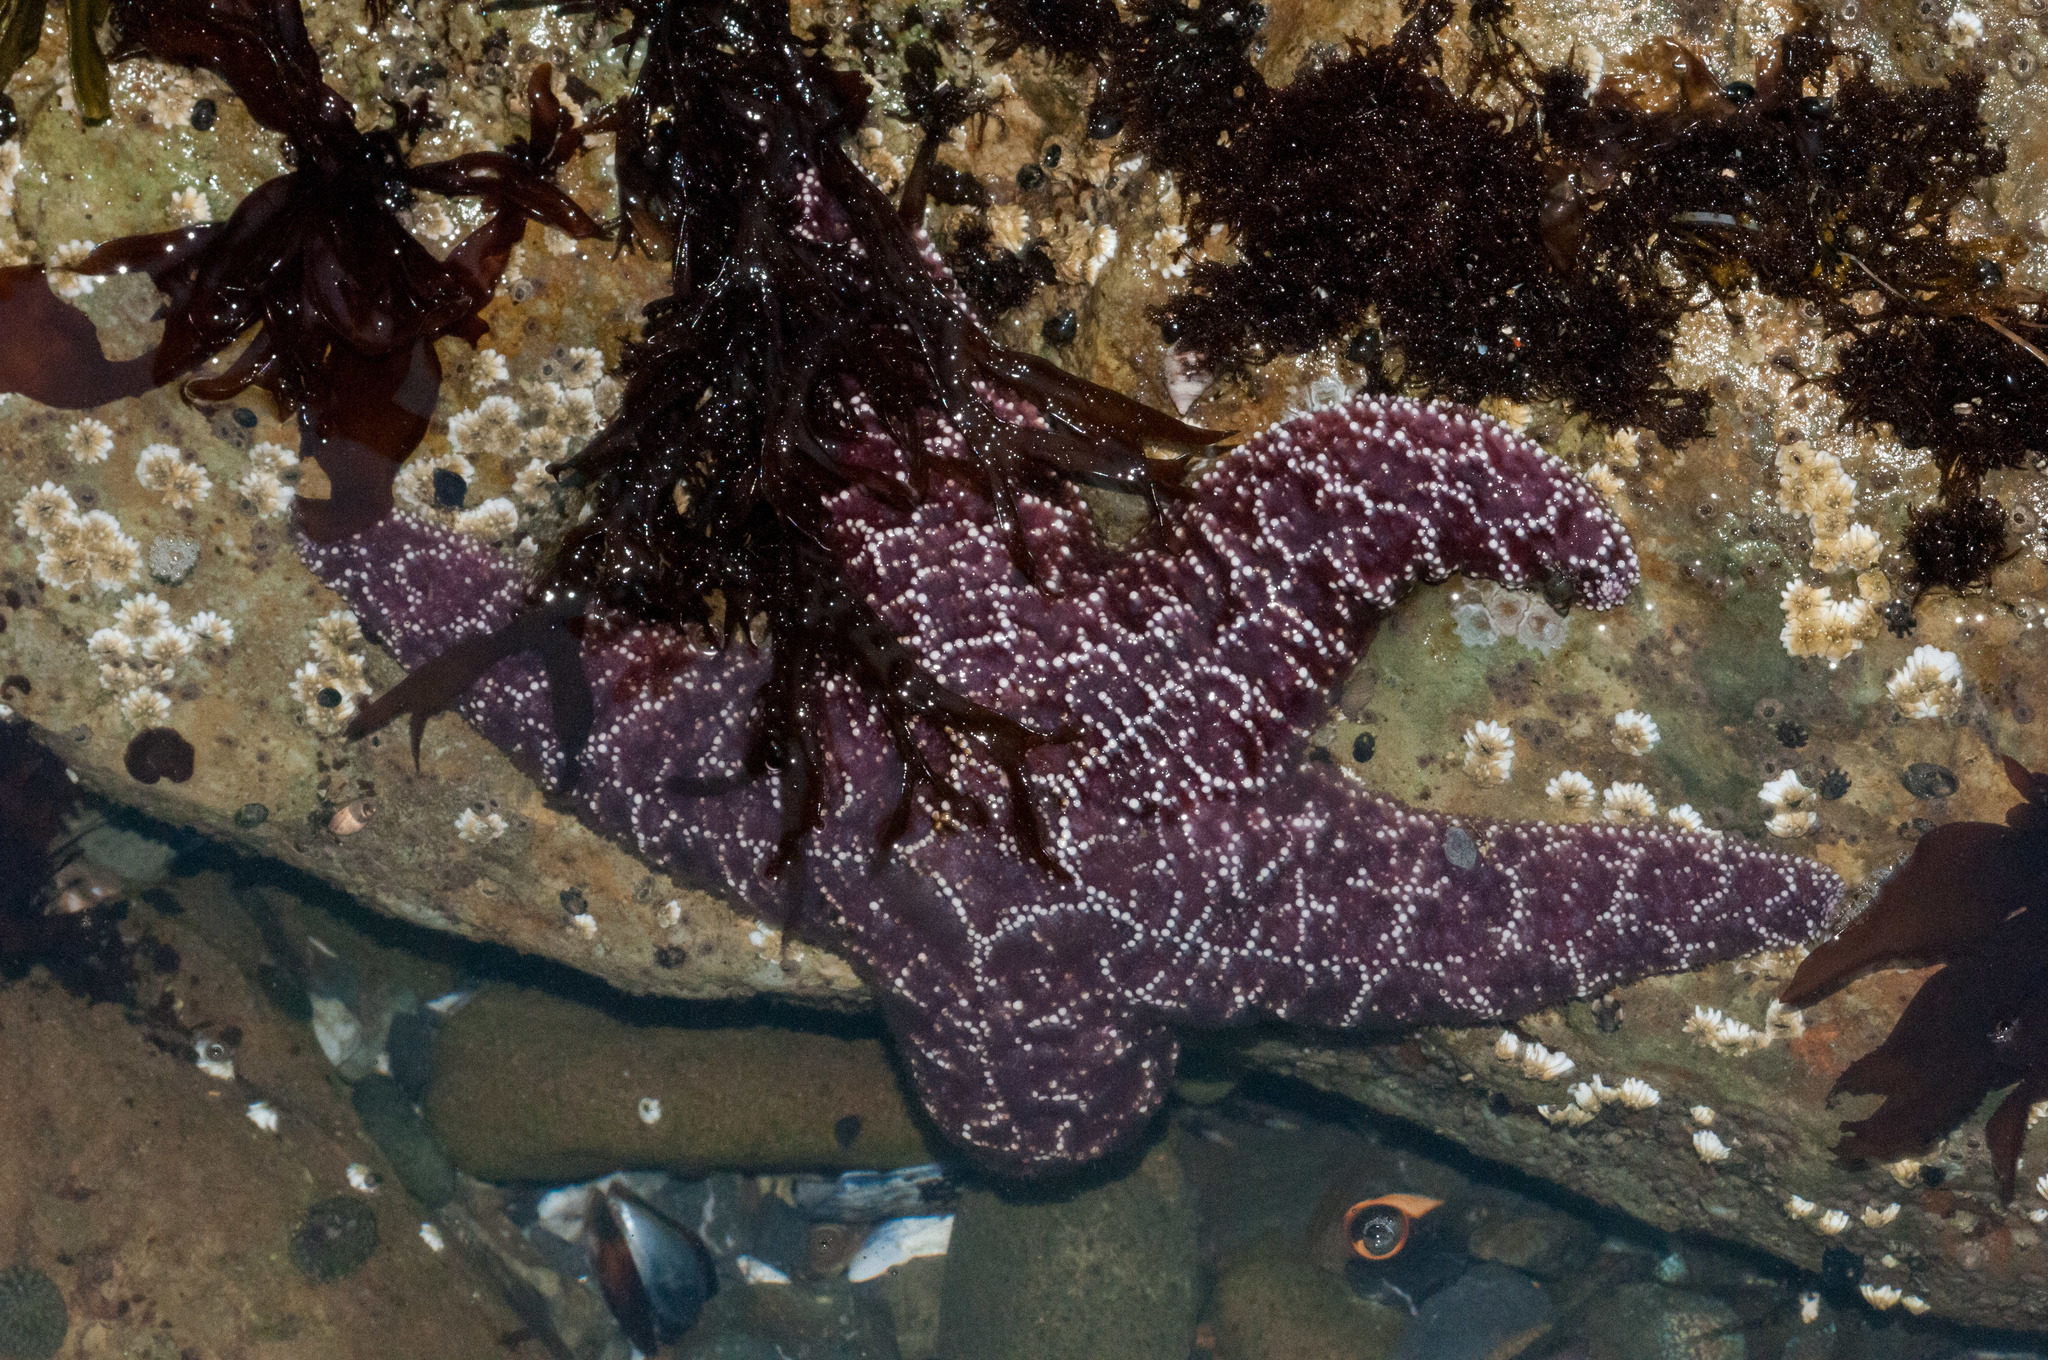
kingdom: Animalia
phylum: Echinodermata
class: Asteroidea
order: Forcipulatida
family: Asteriidae
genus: Pisaster
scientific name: Pisaster ochraceus
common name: Ochre stars
